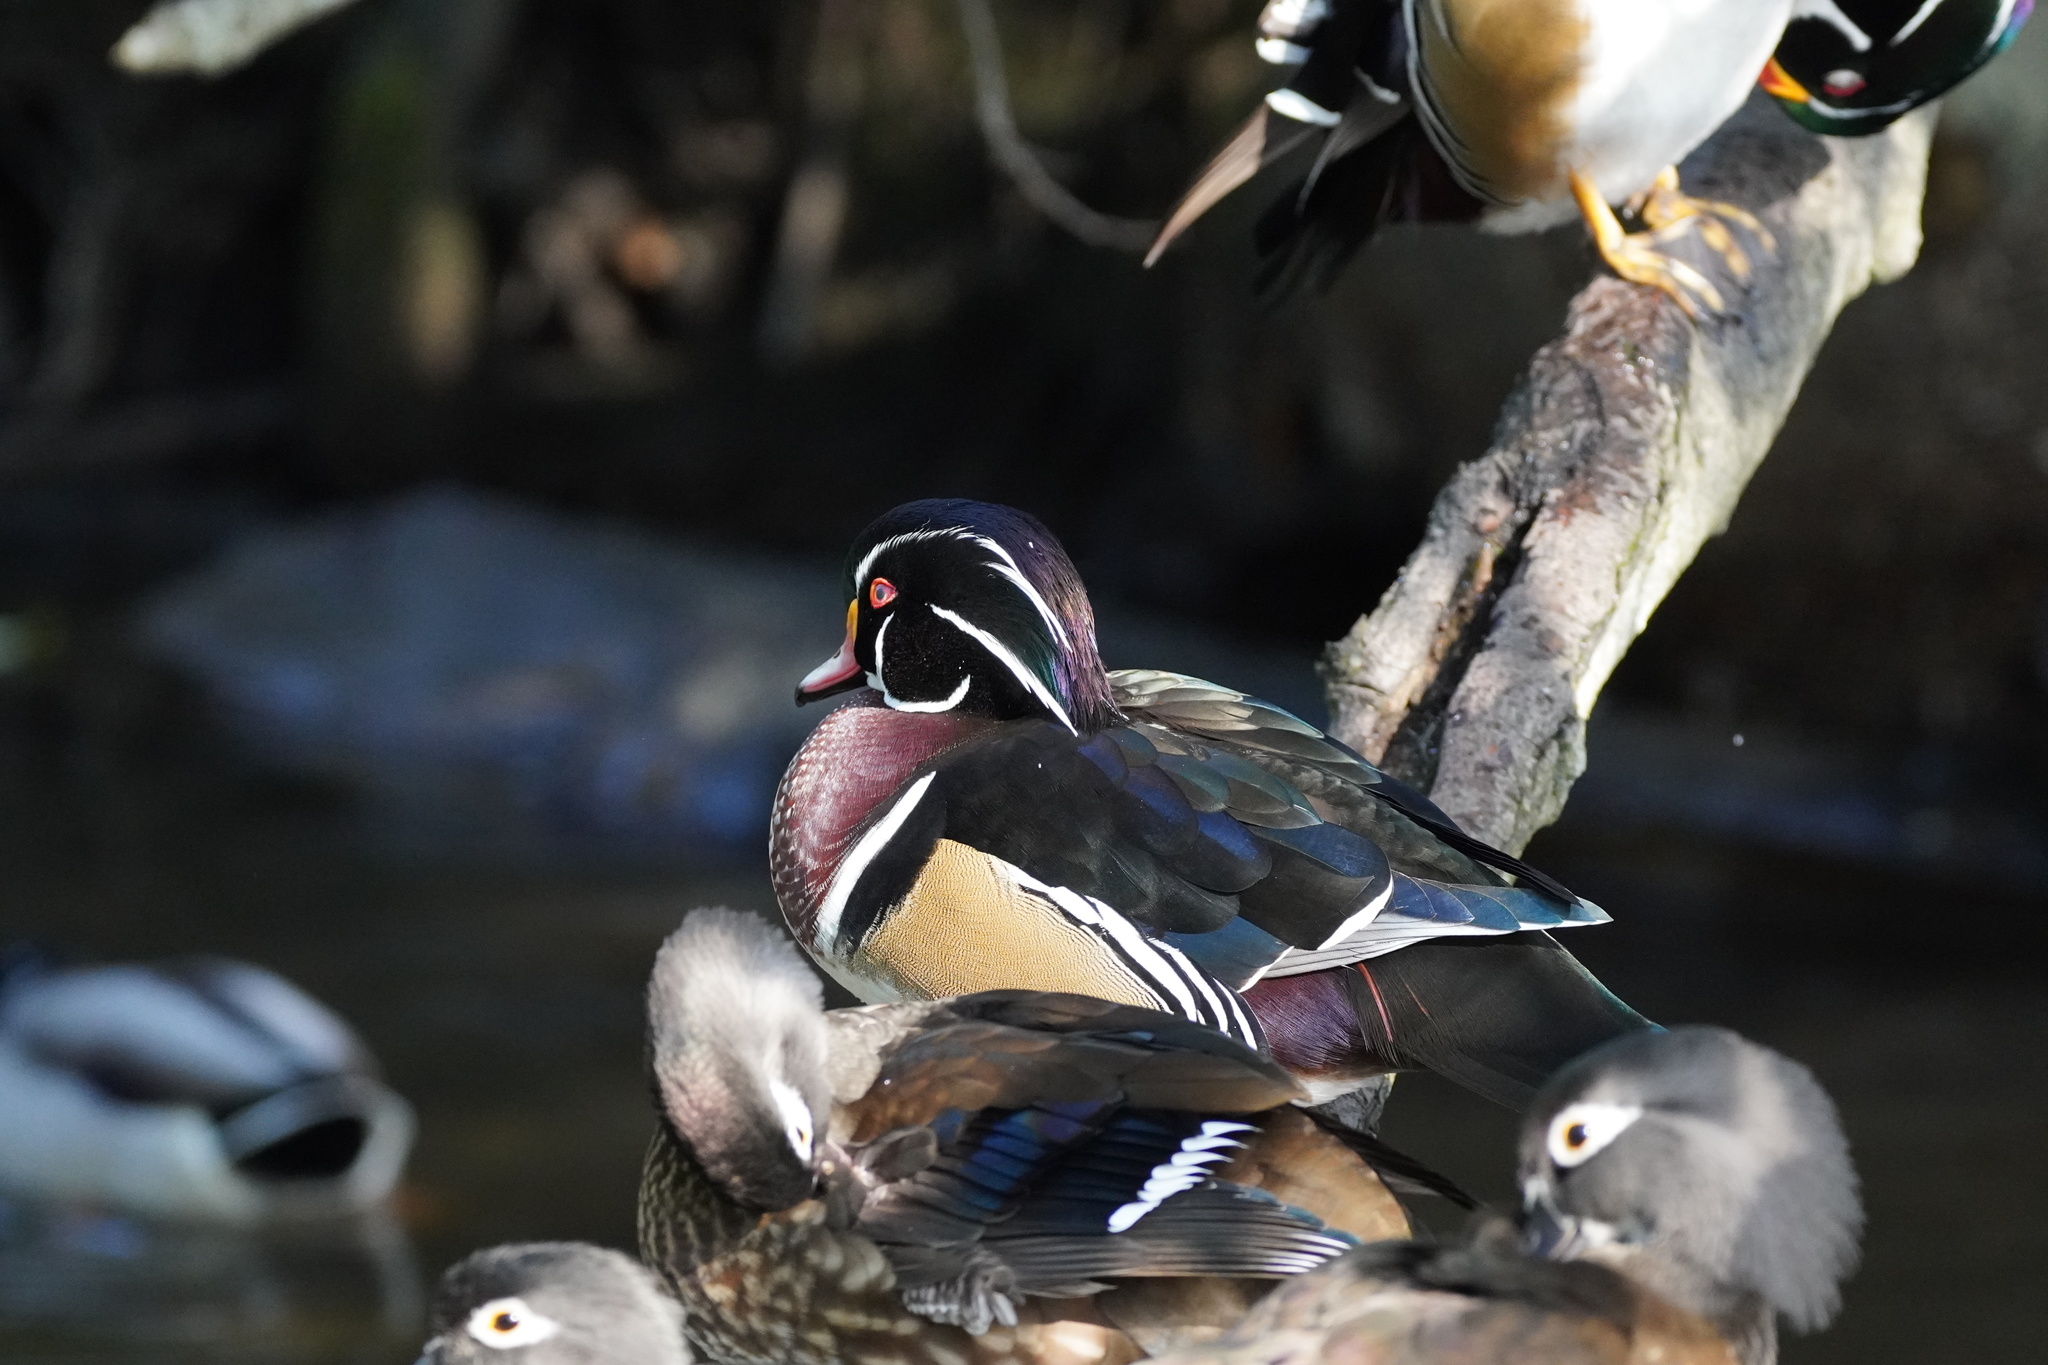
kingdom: Animalia
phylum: Chordata
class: Aves
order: Anseriformes
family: Anatidae
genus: Aix
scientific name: Aix sponsa
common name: Wood duck
